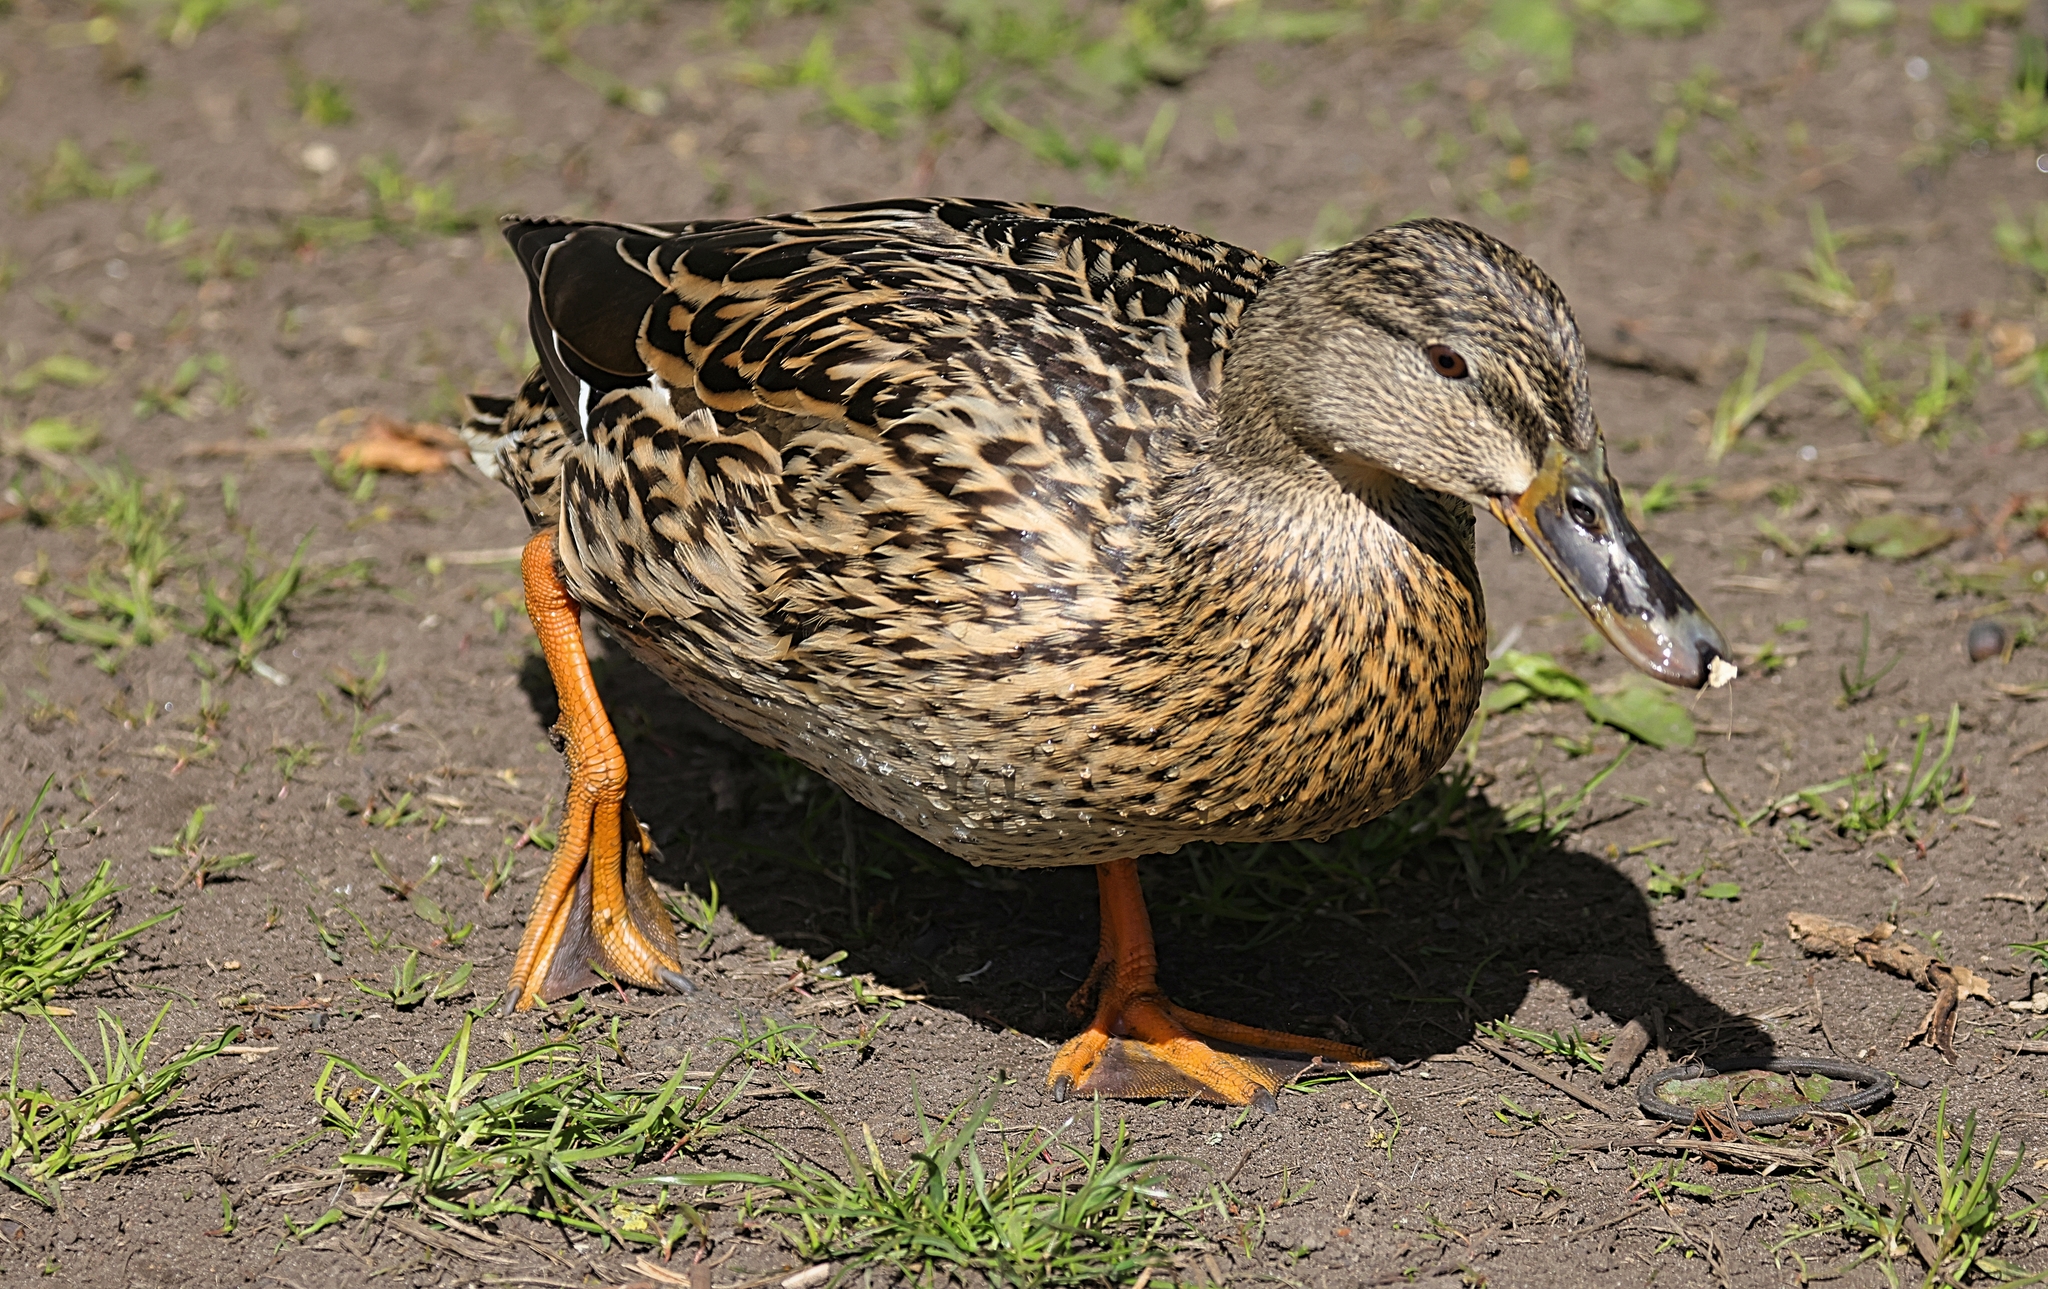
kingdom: Animalia
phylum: Chordata
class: Aves
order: Anseriformes
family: Anatidae
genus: Anas
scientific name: Anas platyrhynchos
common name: Mallard
